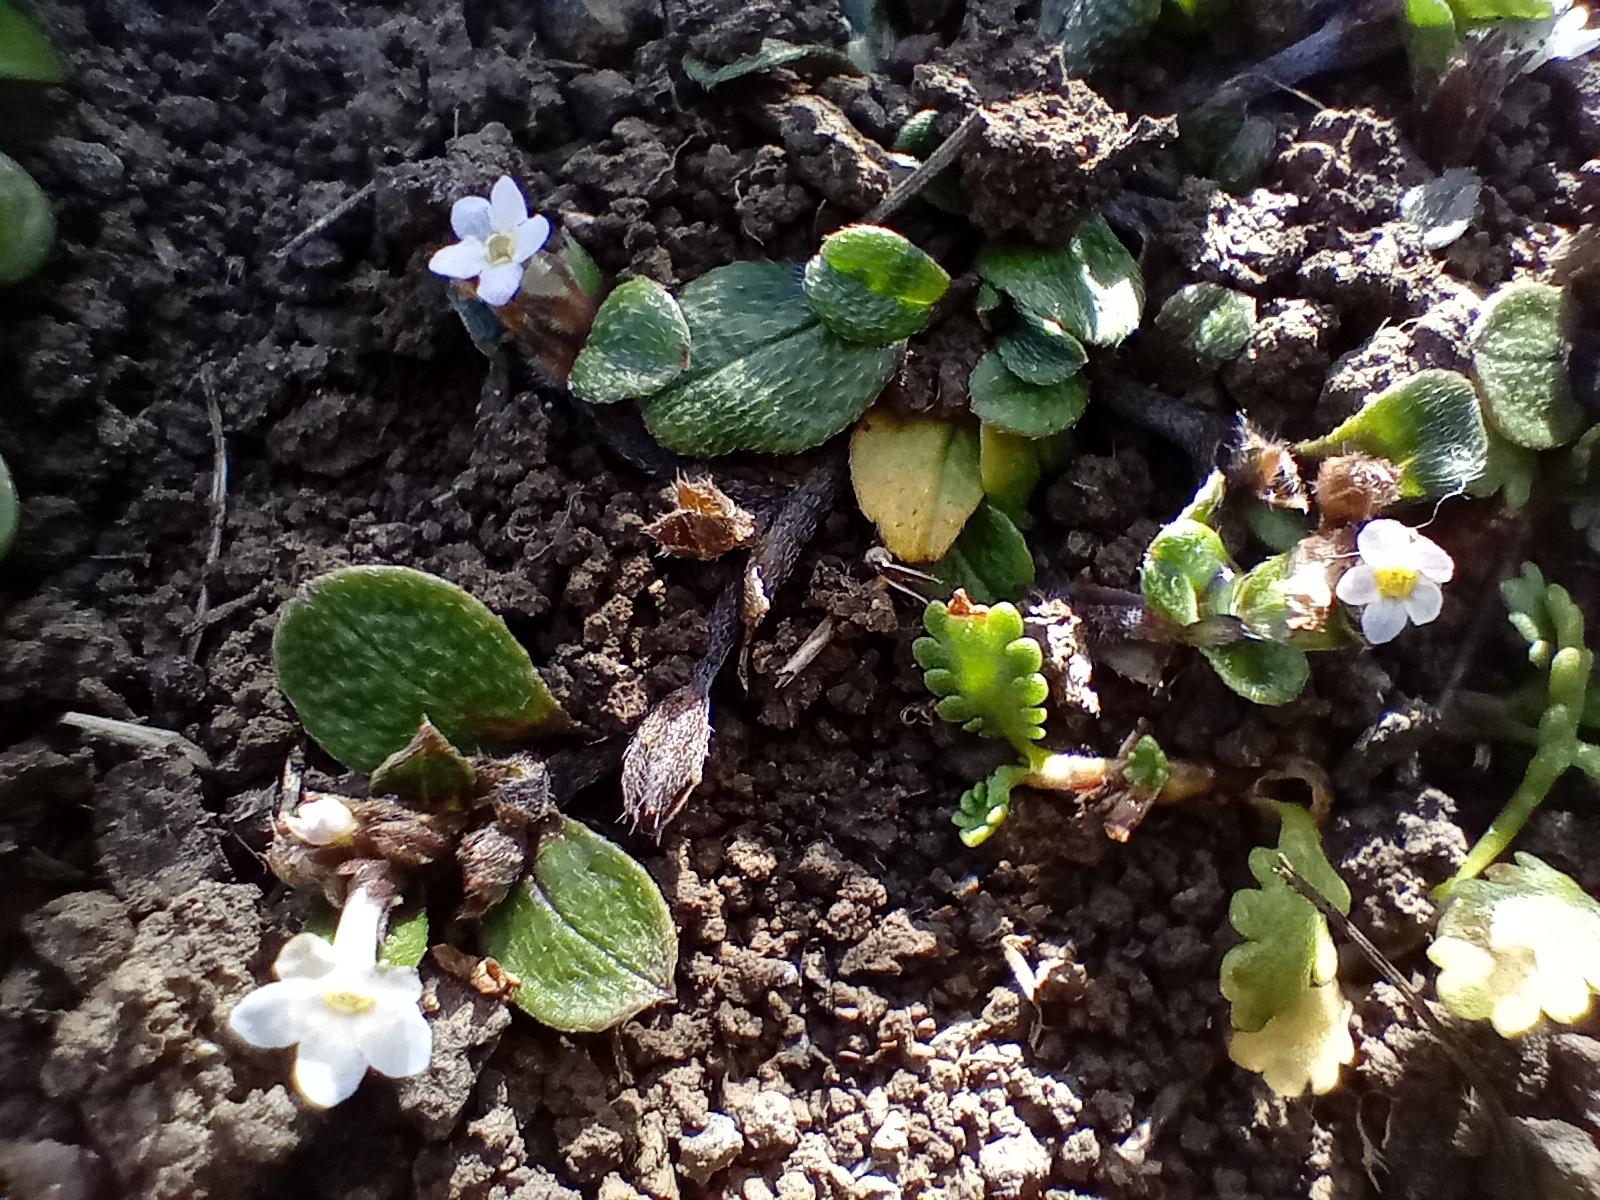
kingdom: Plantae
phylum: Tracheophyta
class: Magnoliopsida
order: Boraginales
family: Boraginaceae
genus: Myosotis
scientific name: Myosotis antarctica
